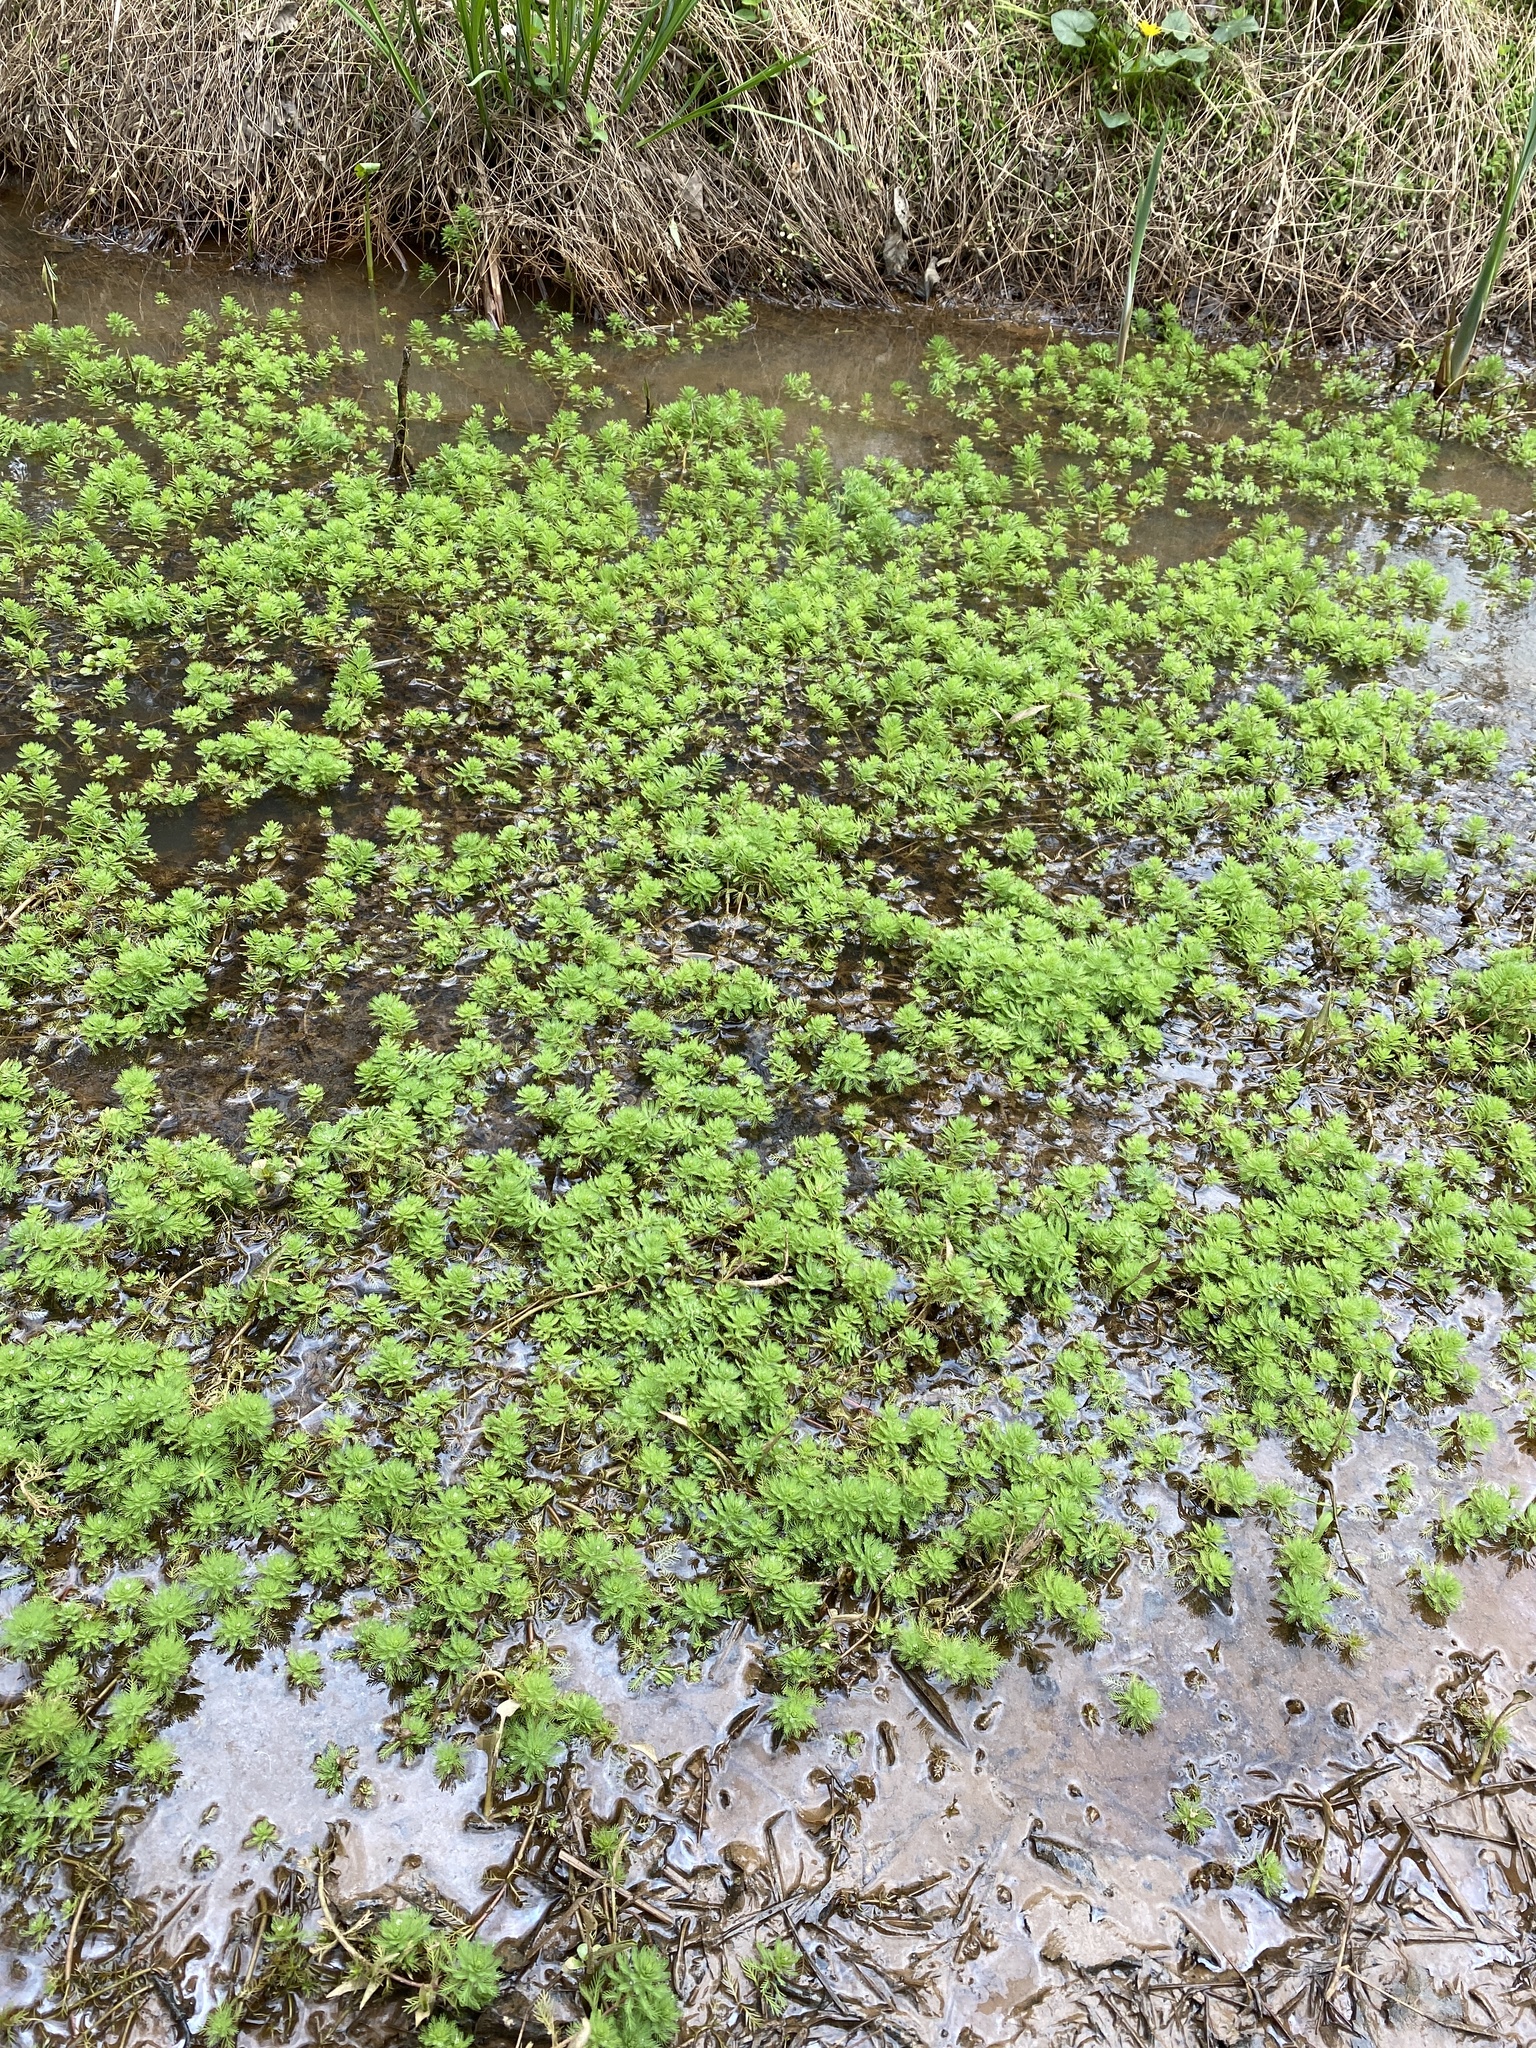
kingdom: Plantae
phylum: Tracheophyta
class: Magnoliopsida
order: Saxifragales
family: Haloragaceae
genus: Myriophyllum
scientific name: Myriophyllum aquaticum
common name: Parrot's feather
